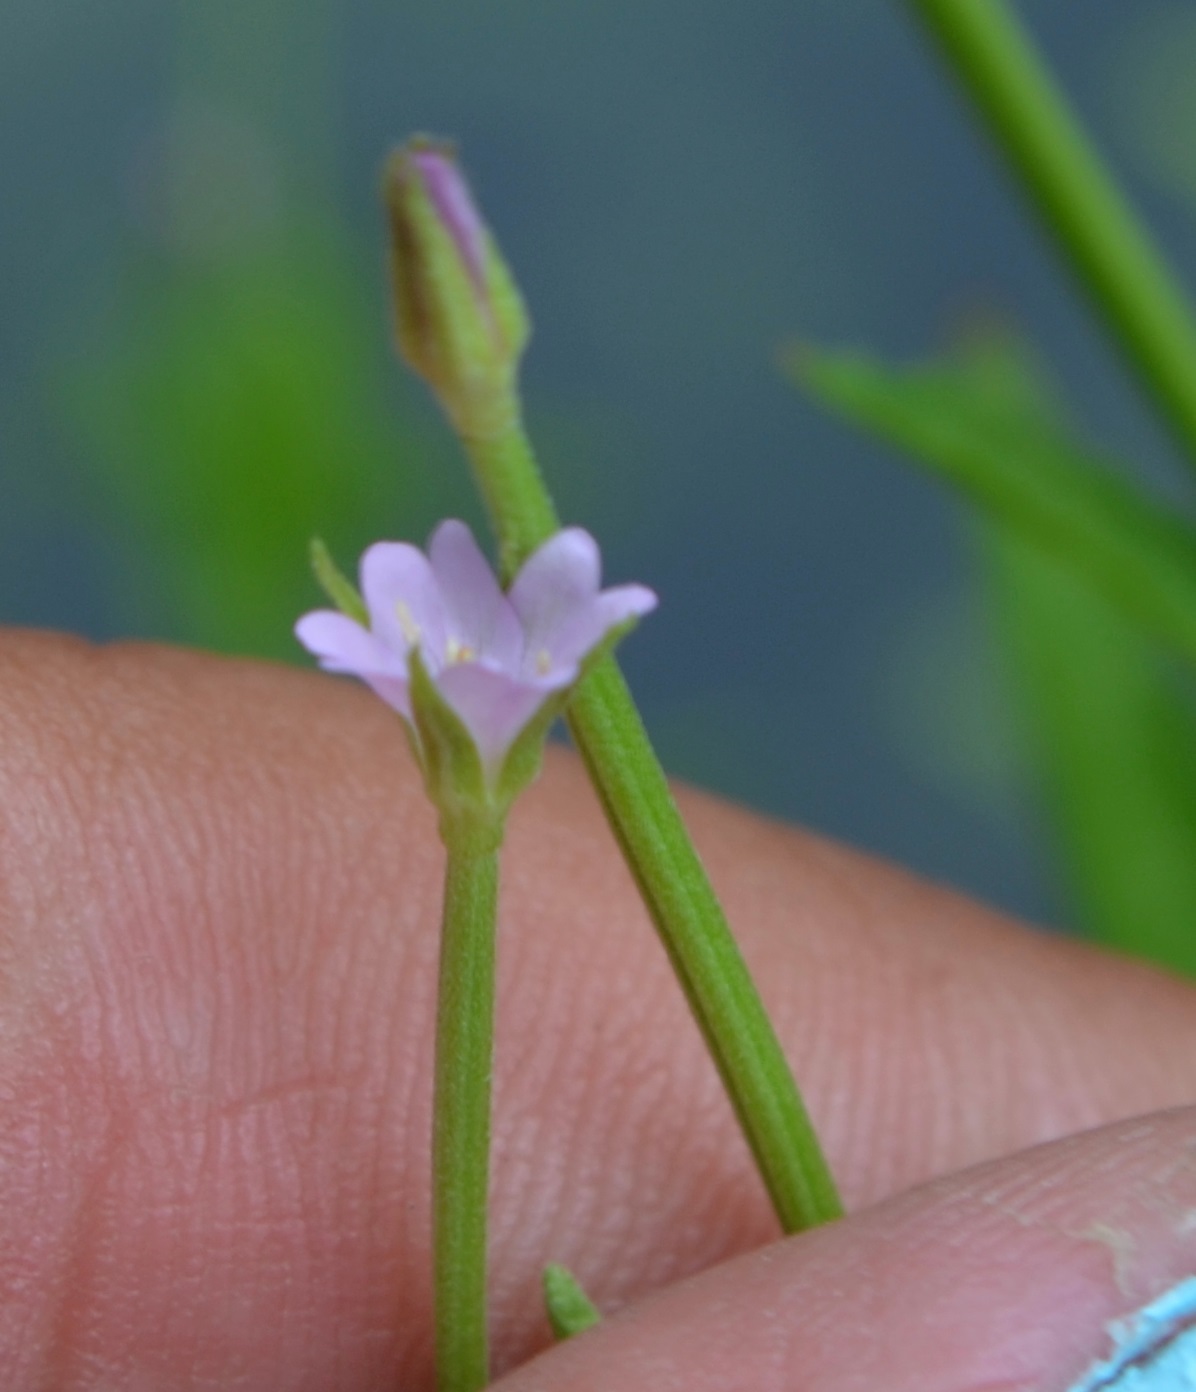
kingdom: Plantae
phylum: Tracheophyta
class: Magnoliopsida
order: Myrtales
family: Onagraceae
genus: Epilobium
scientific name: Epilobium coloratum
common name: Bronze willowherb
